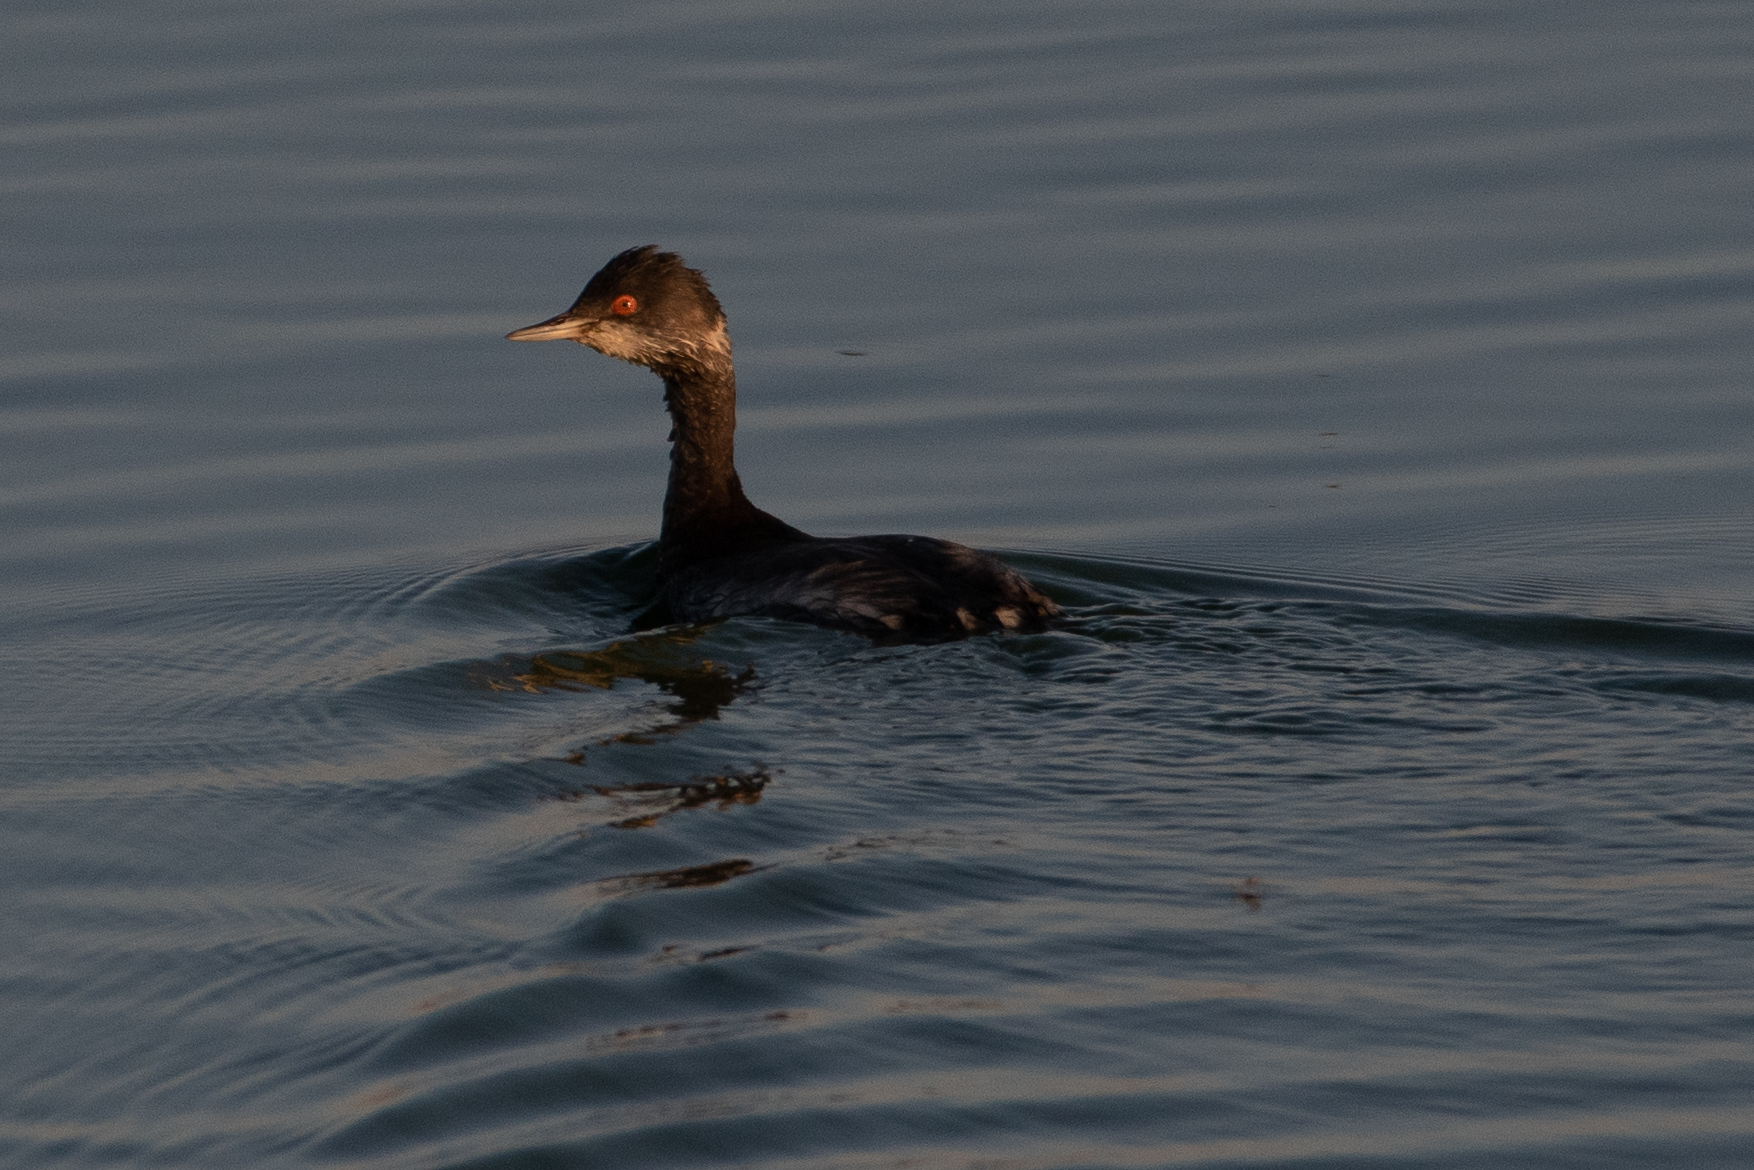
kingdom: Animalia
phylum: Chordata
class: Aves
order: Podicipediformes
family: Podicipedidae
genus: Podiceps
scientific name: Podiceps nigricollis
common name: Black-necked grebe
